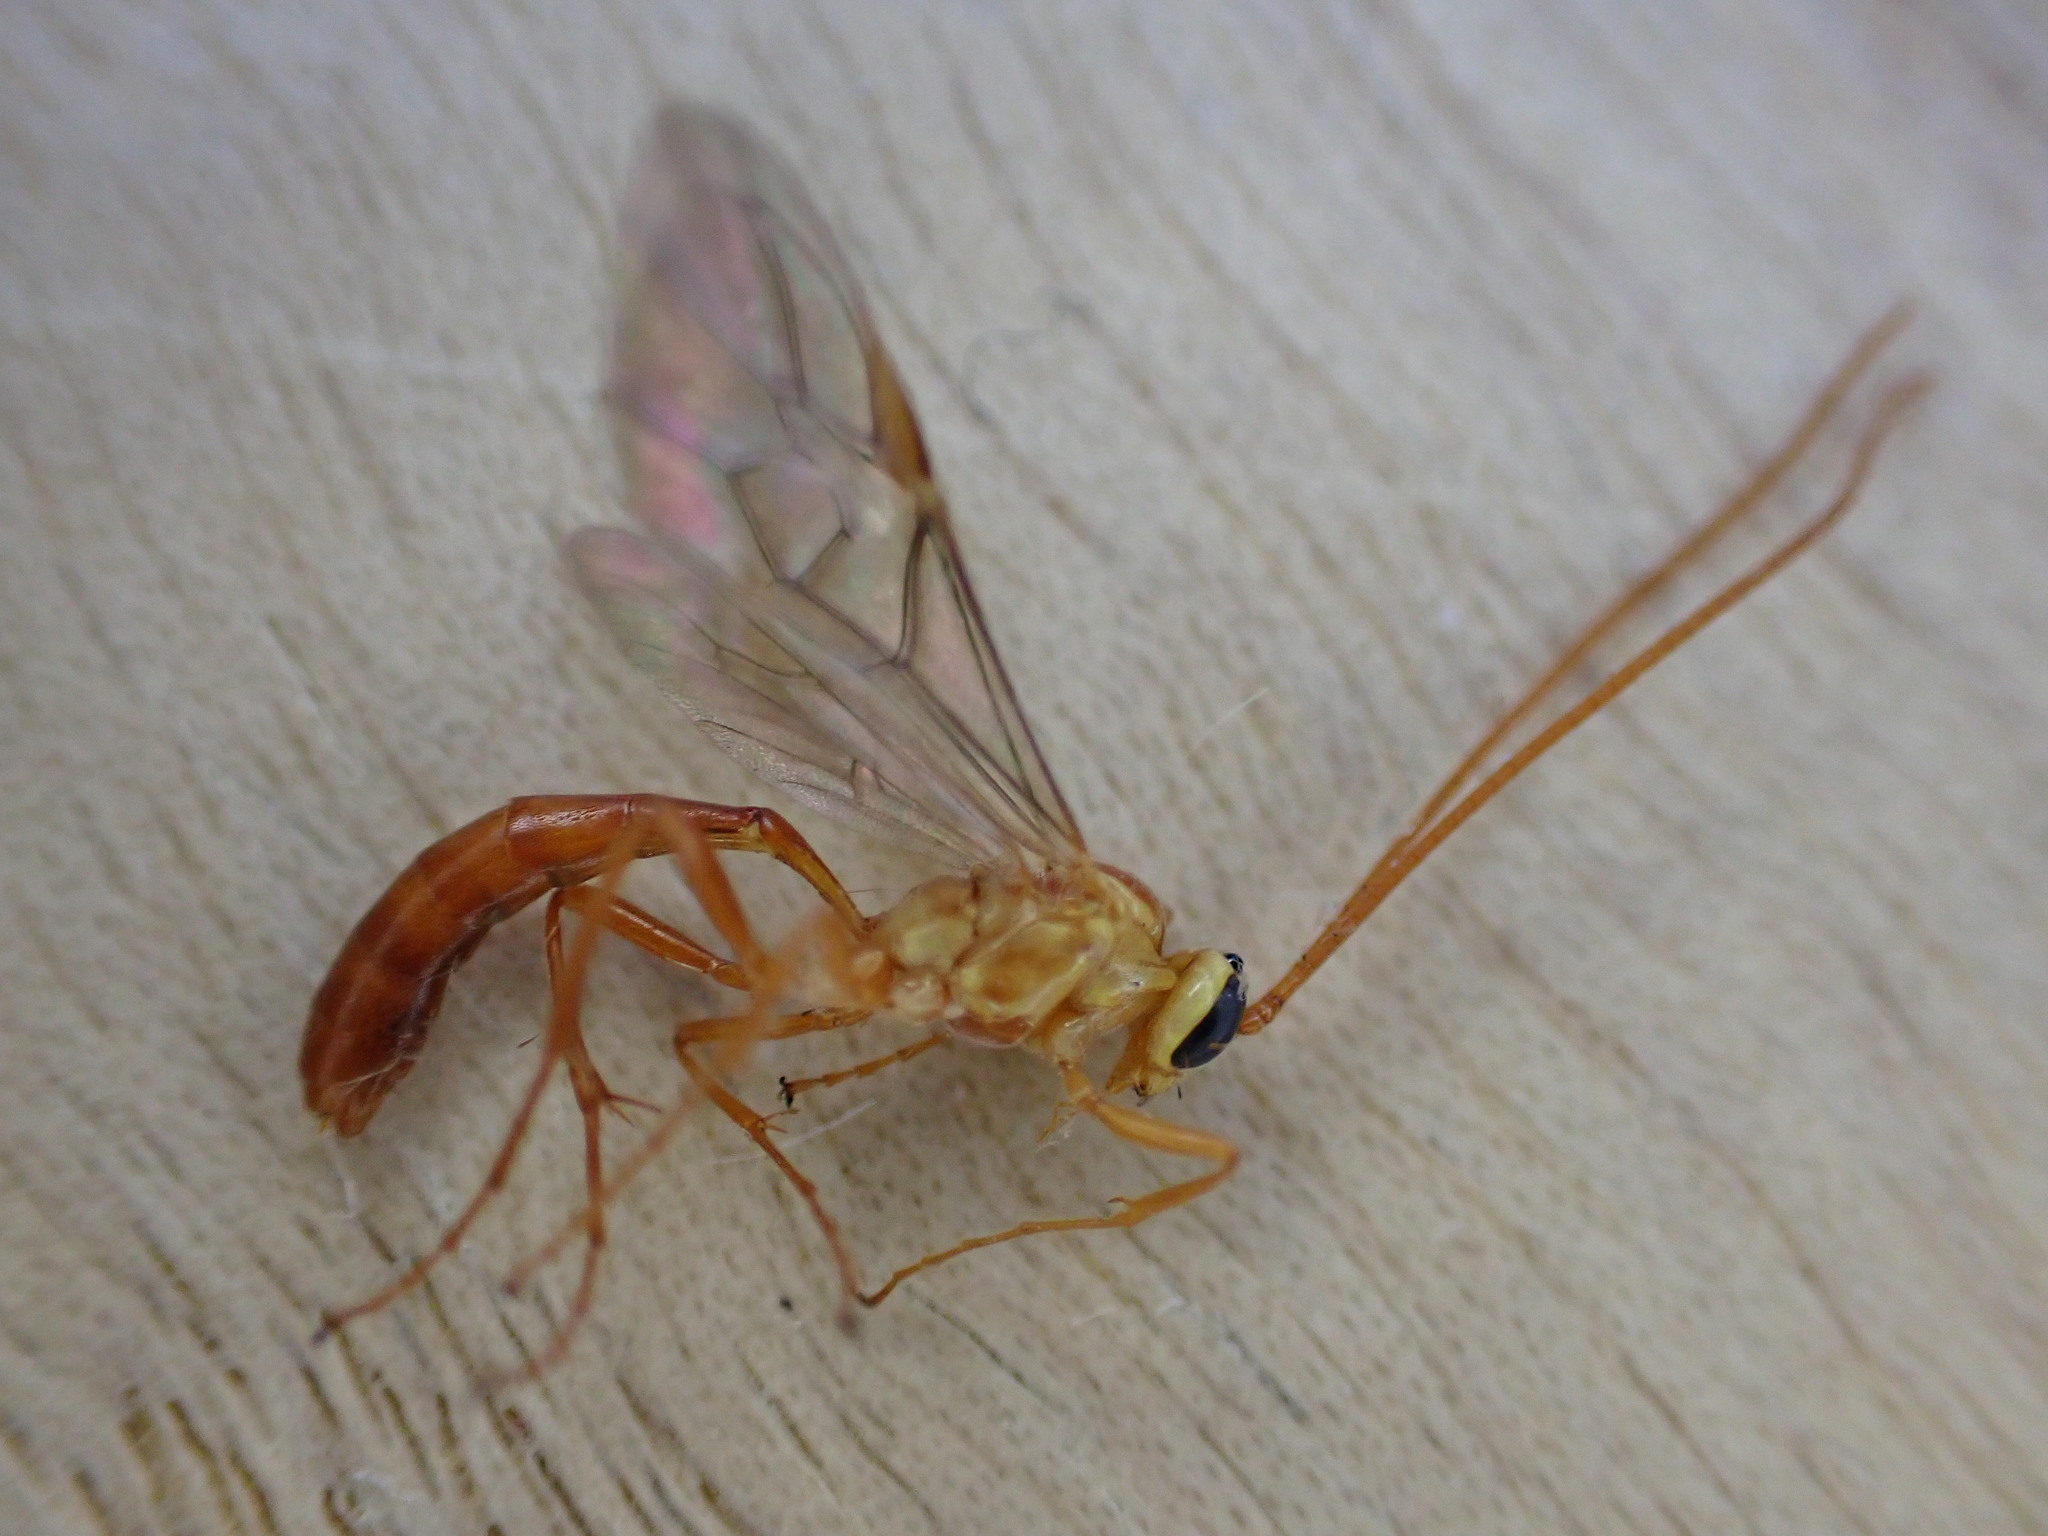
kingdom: Animalia
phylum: Arthropoda
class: Insecta
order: Hymenoptera
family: Ichneumonidae
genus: Ophion
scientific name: Ophion minutus
